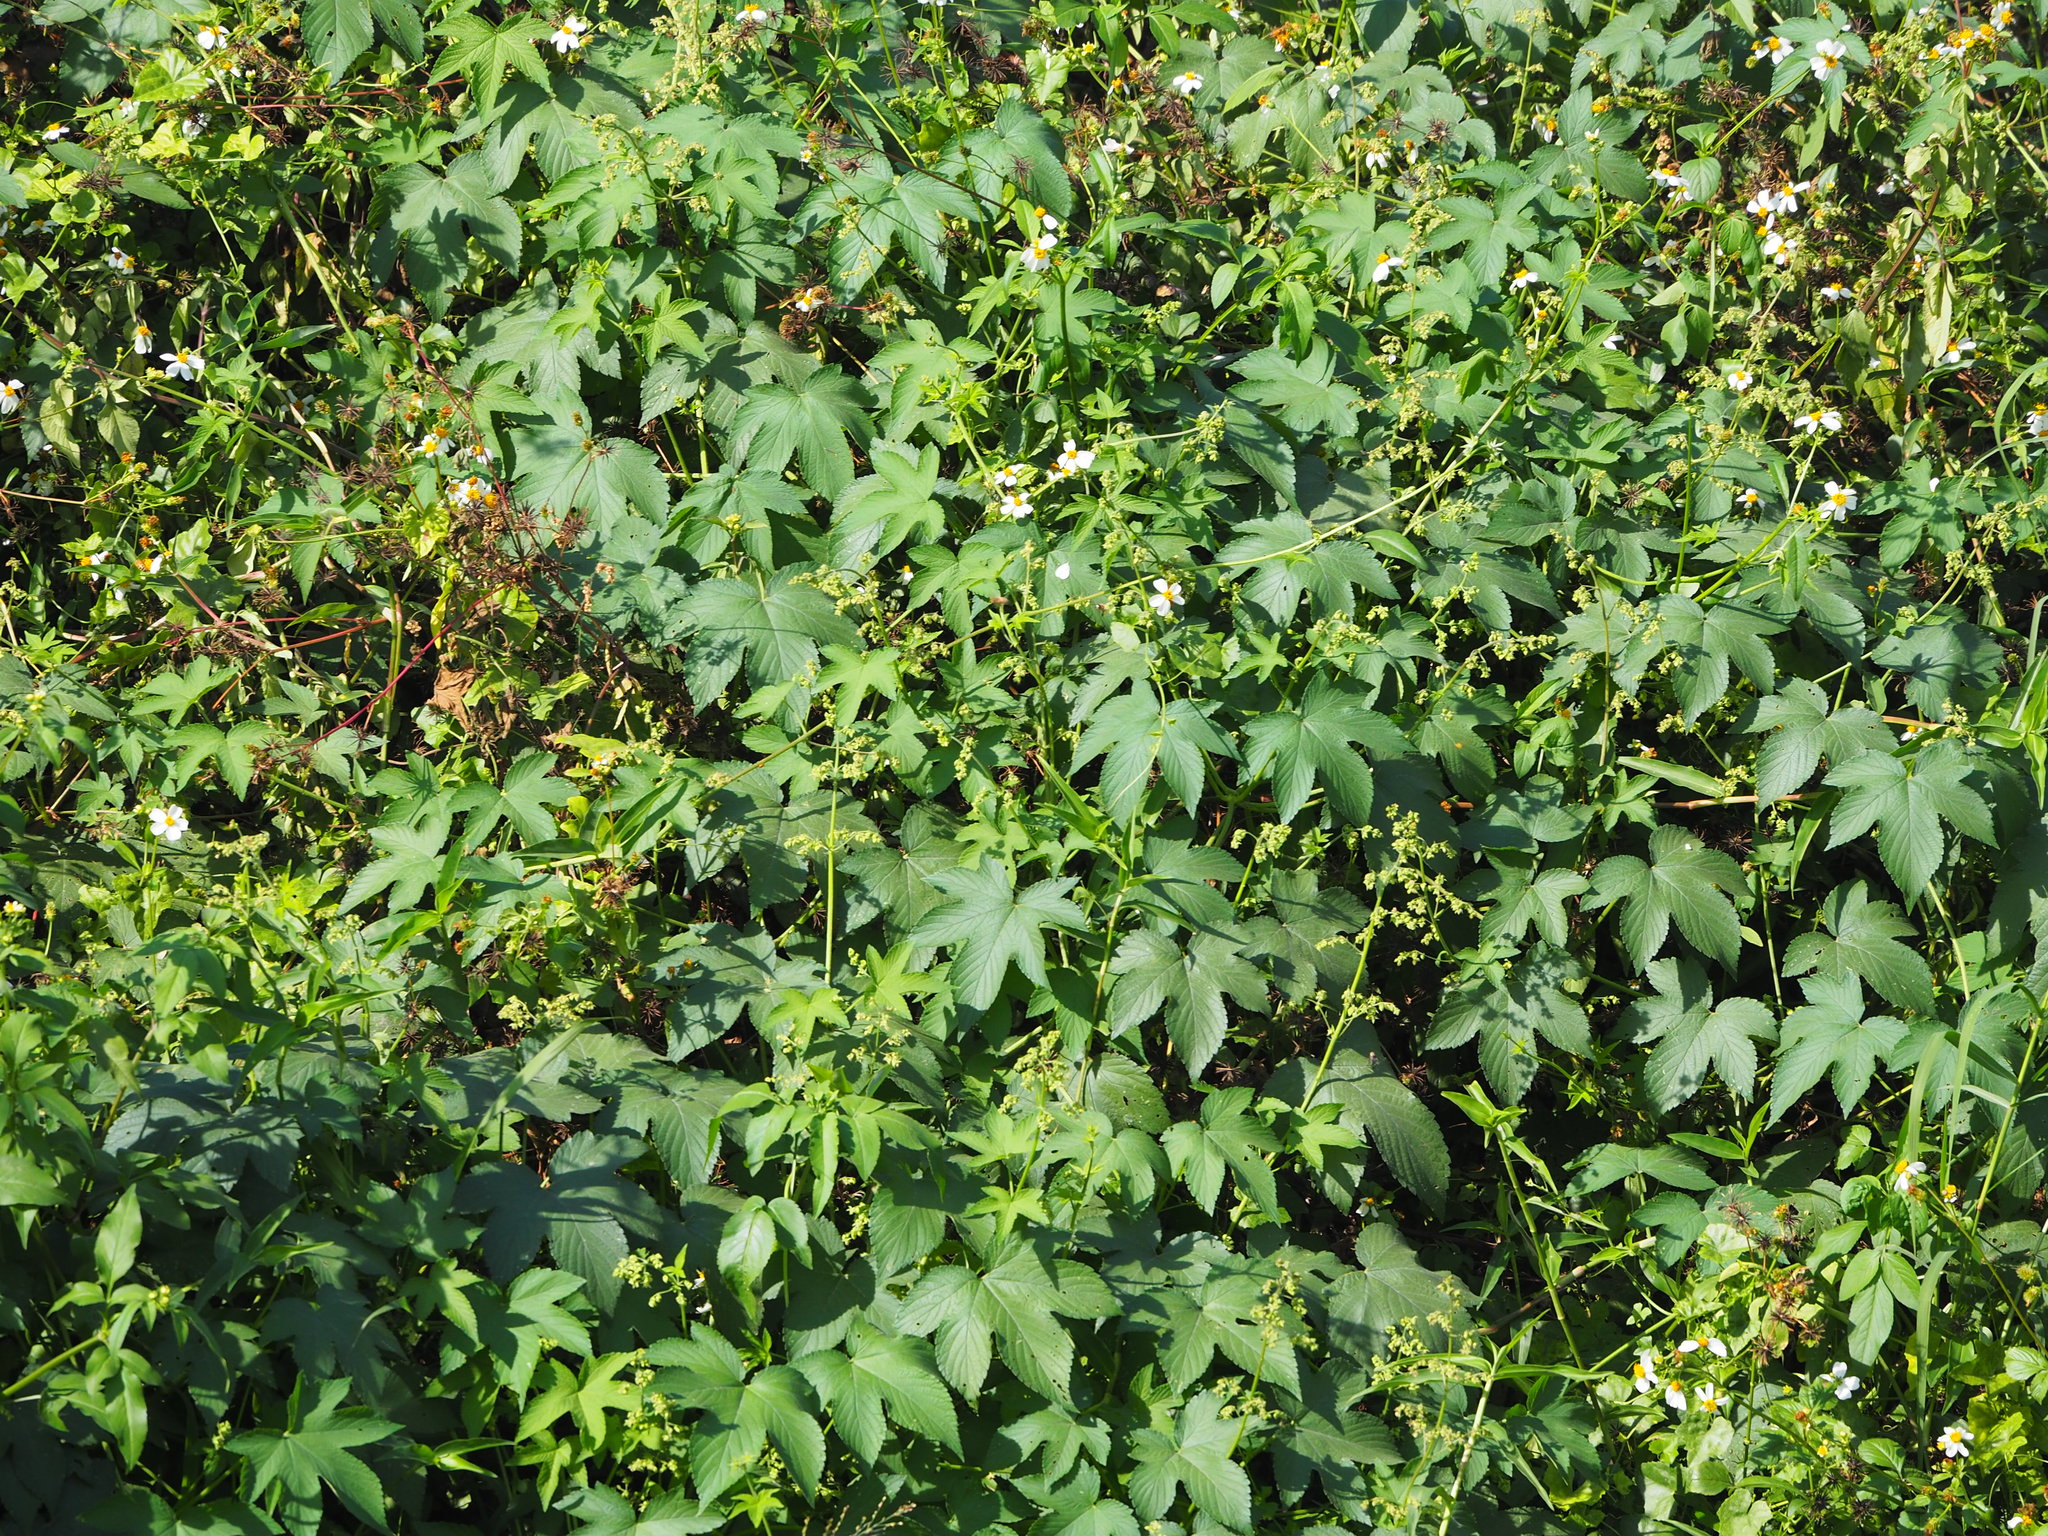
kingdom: Plantae
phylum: Tracheophyta
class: Magnoliopsida
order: Rosales
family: Cannabaceae
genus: Humulus
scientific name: Humulus scandens
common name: Japanese hop
